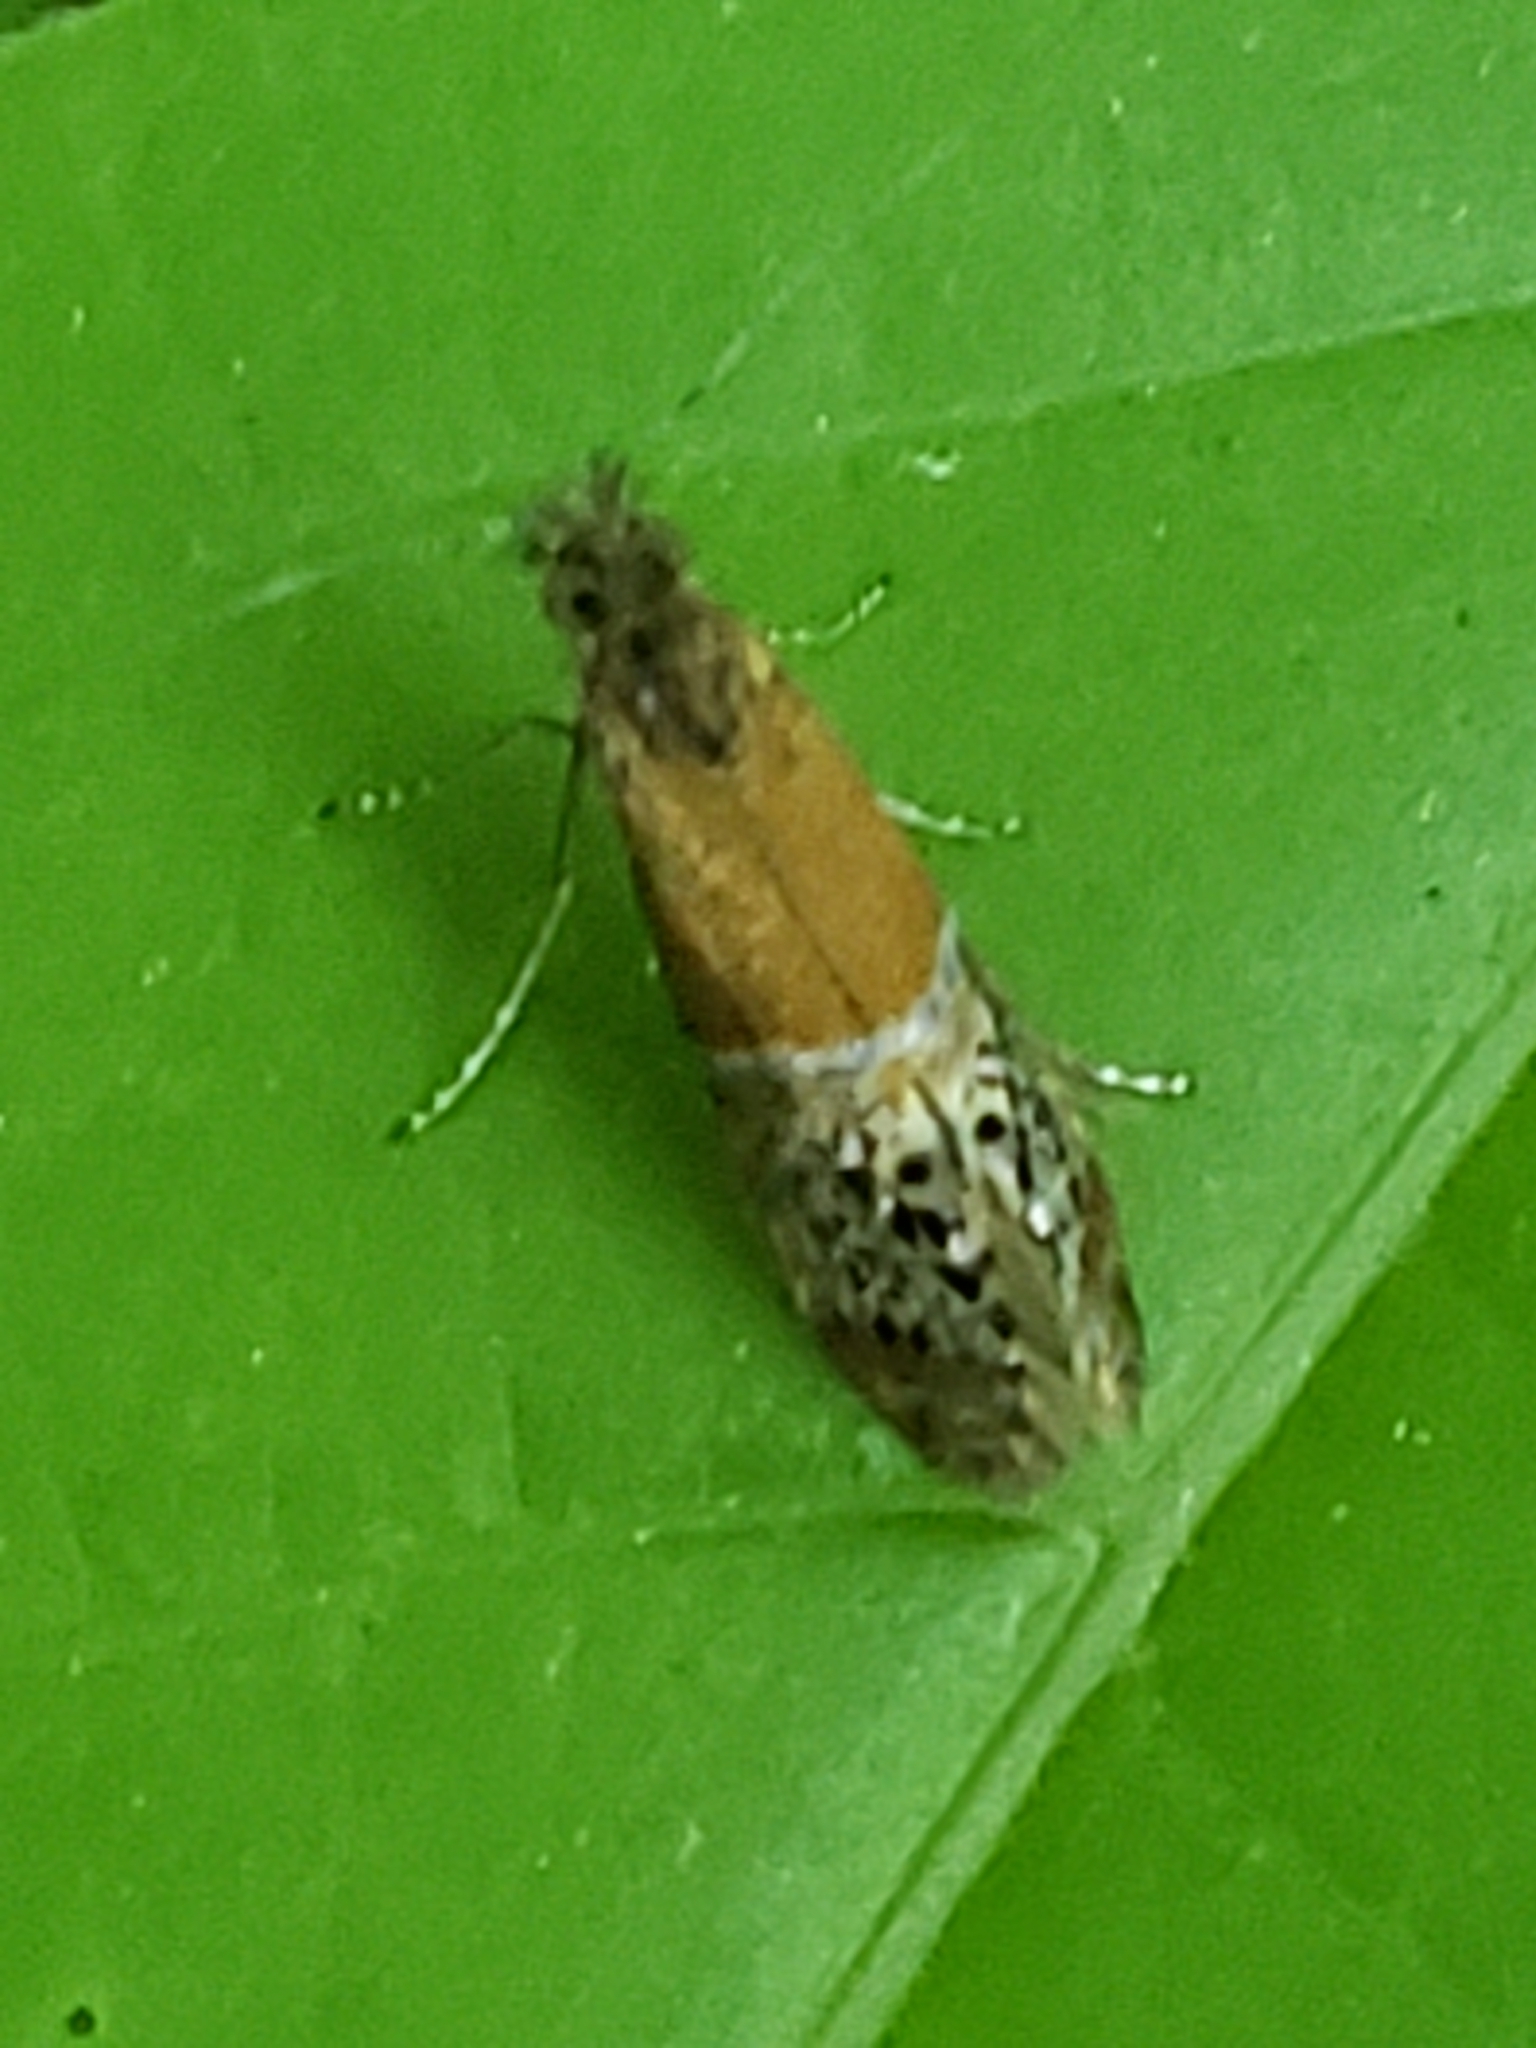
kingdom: Animalia
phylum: Arthropoda
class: Insecta
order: Lepidoptera
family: Adelidae
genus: Adela
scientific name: Adela ridingsella
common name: Ridings' fairy moth
